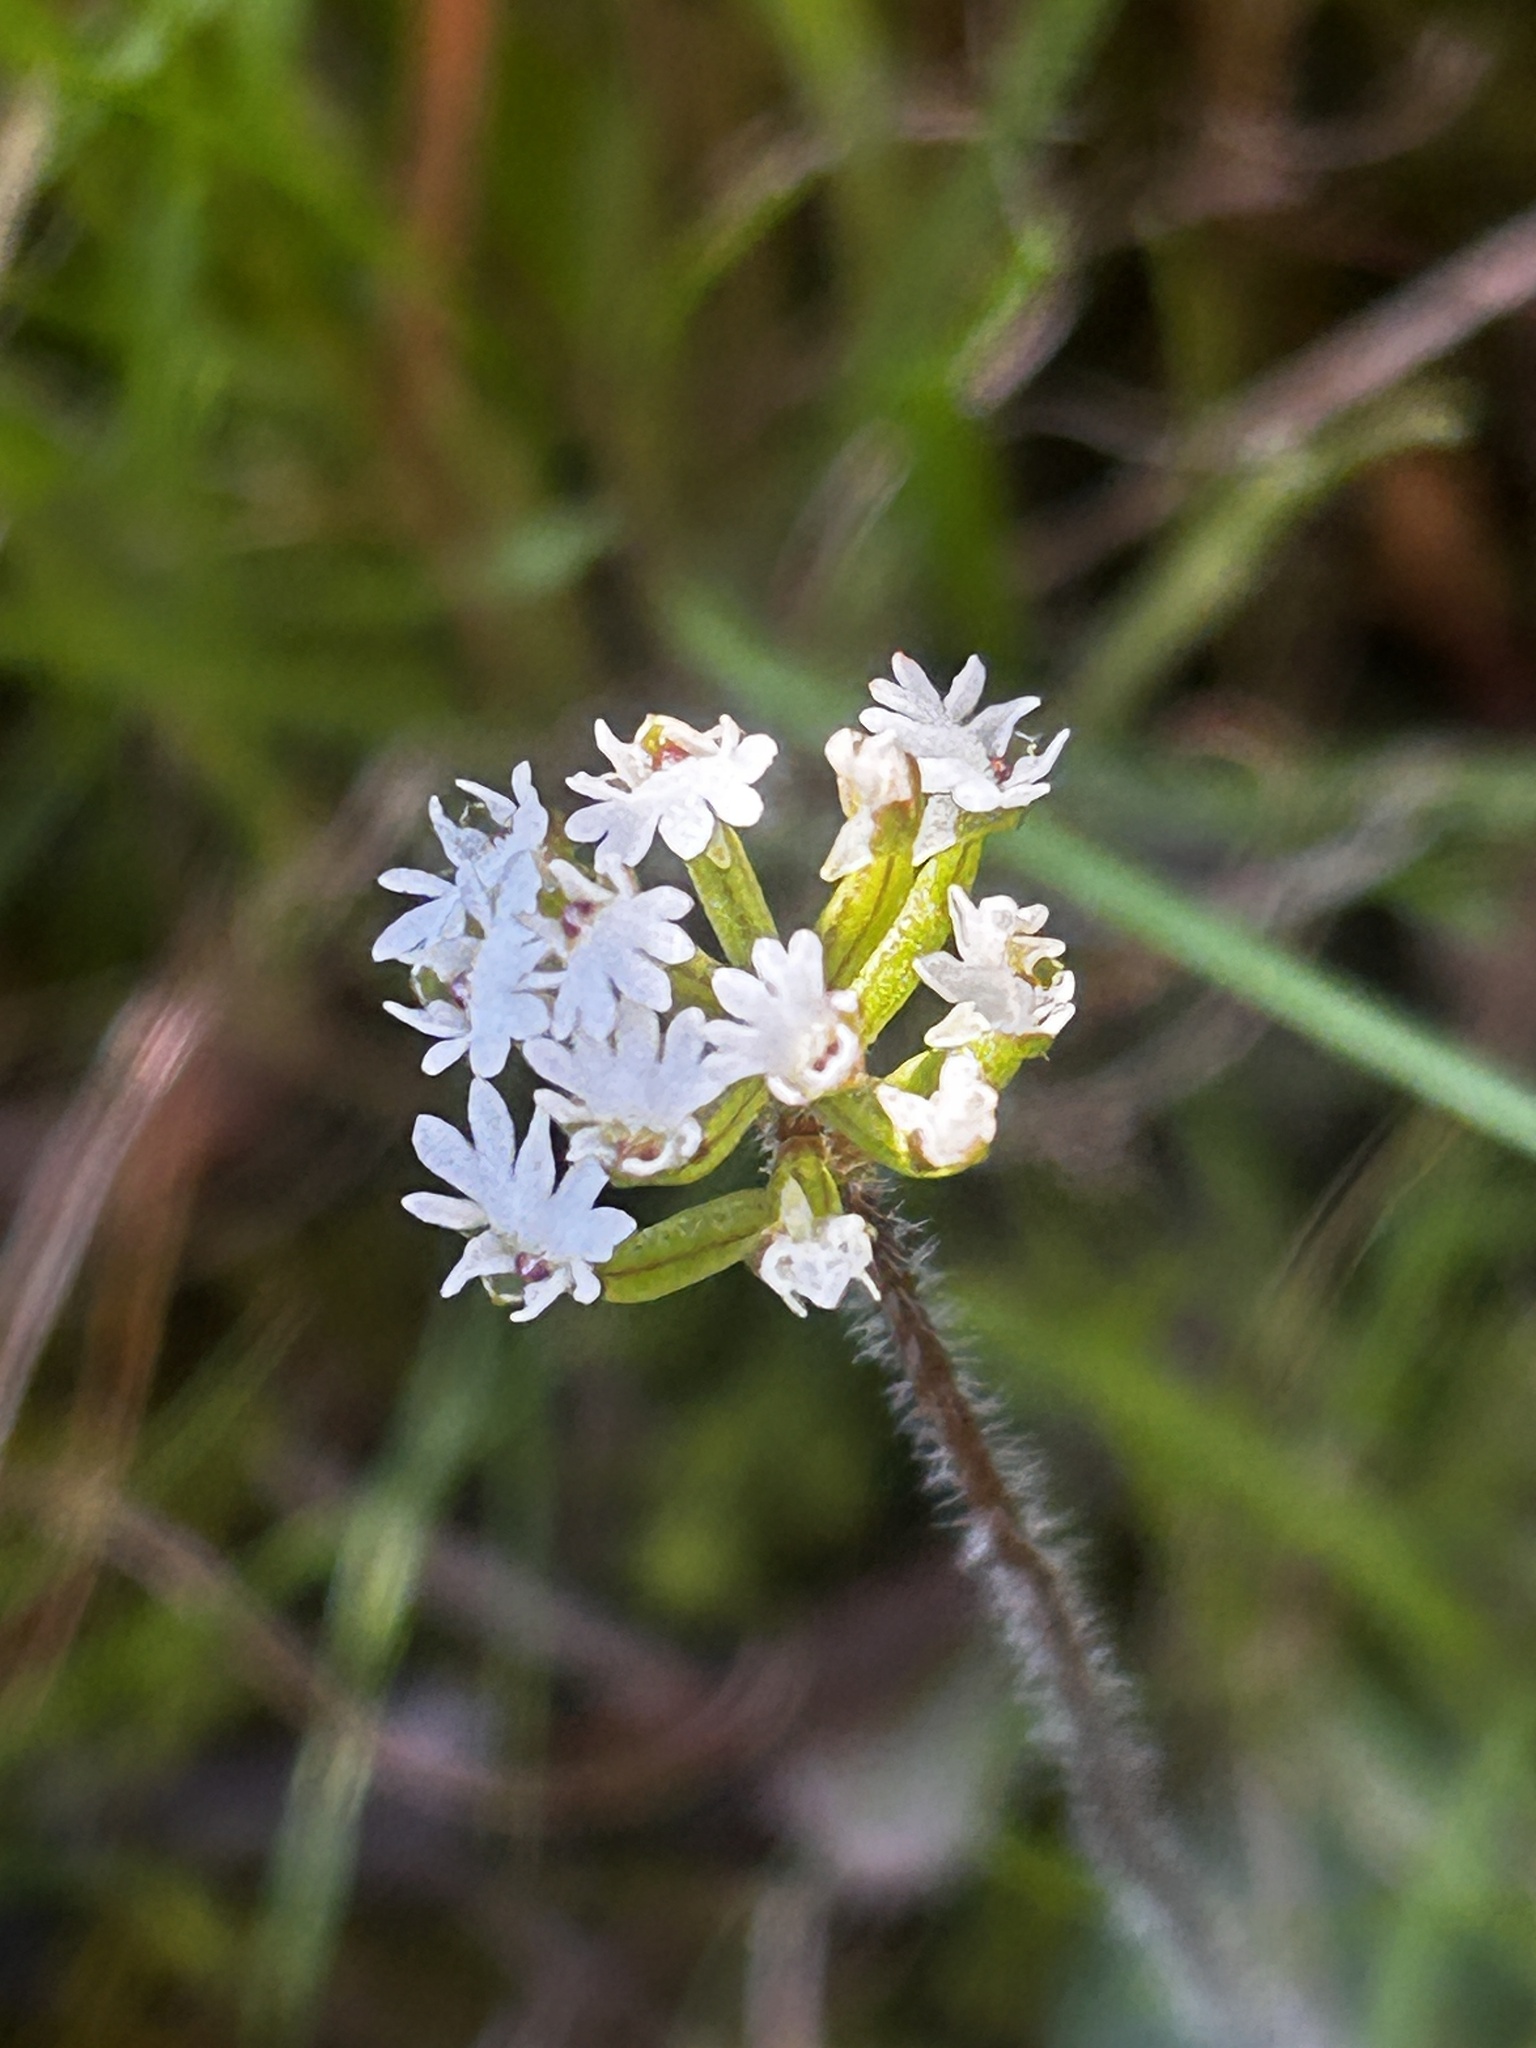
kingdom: Plantae
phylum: Tracheophyta
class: Liliopsida
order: Asparagales
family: Orchidaceae
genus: Holothrix
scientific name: Holothrix mundii
